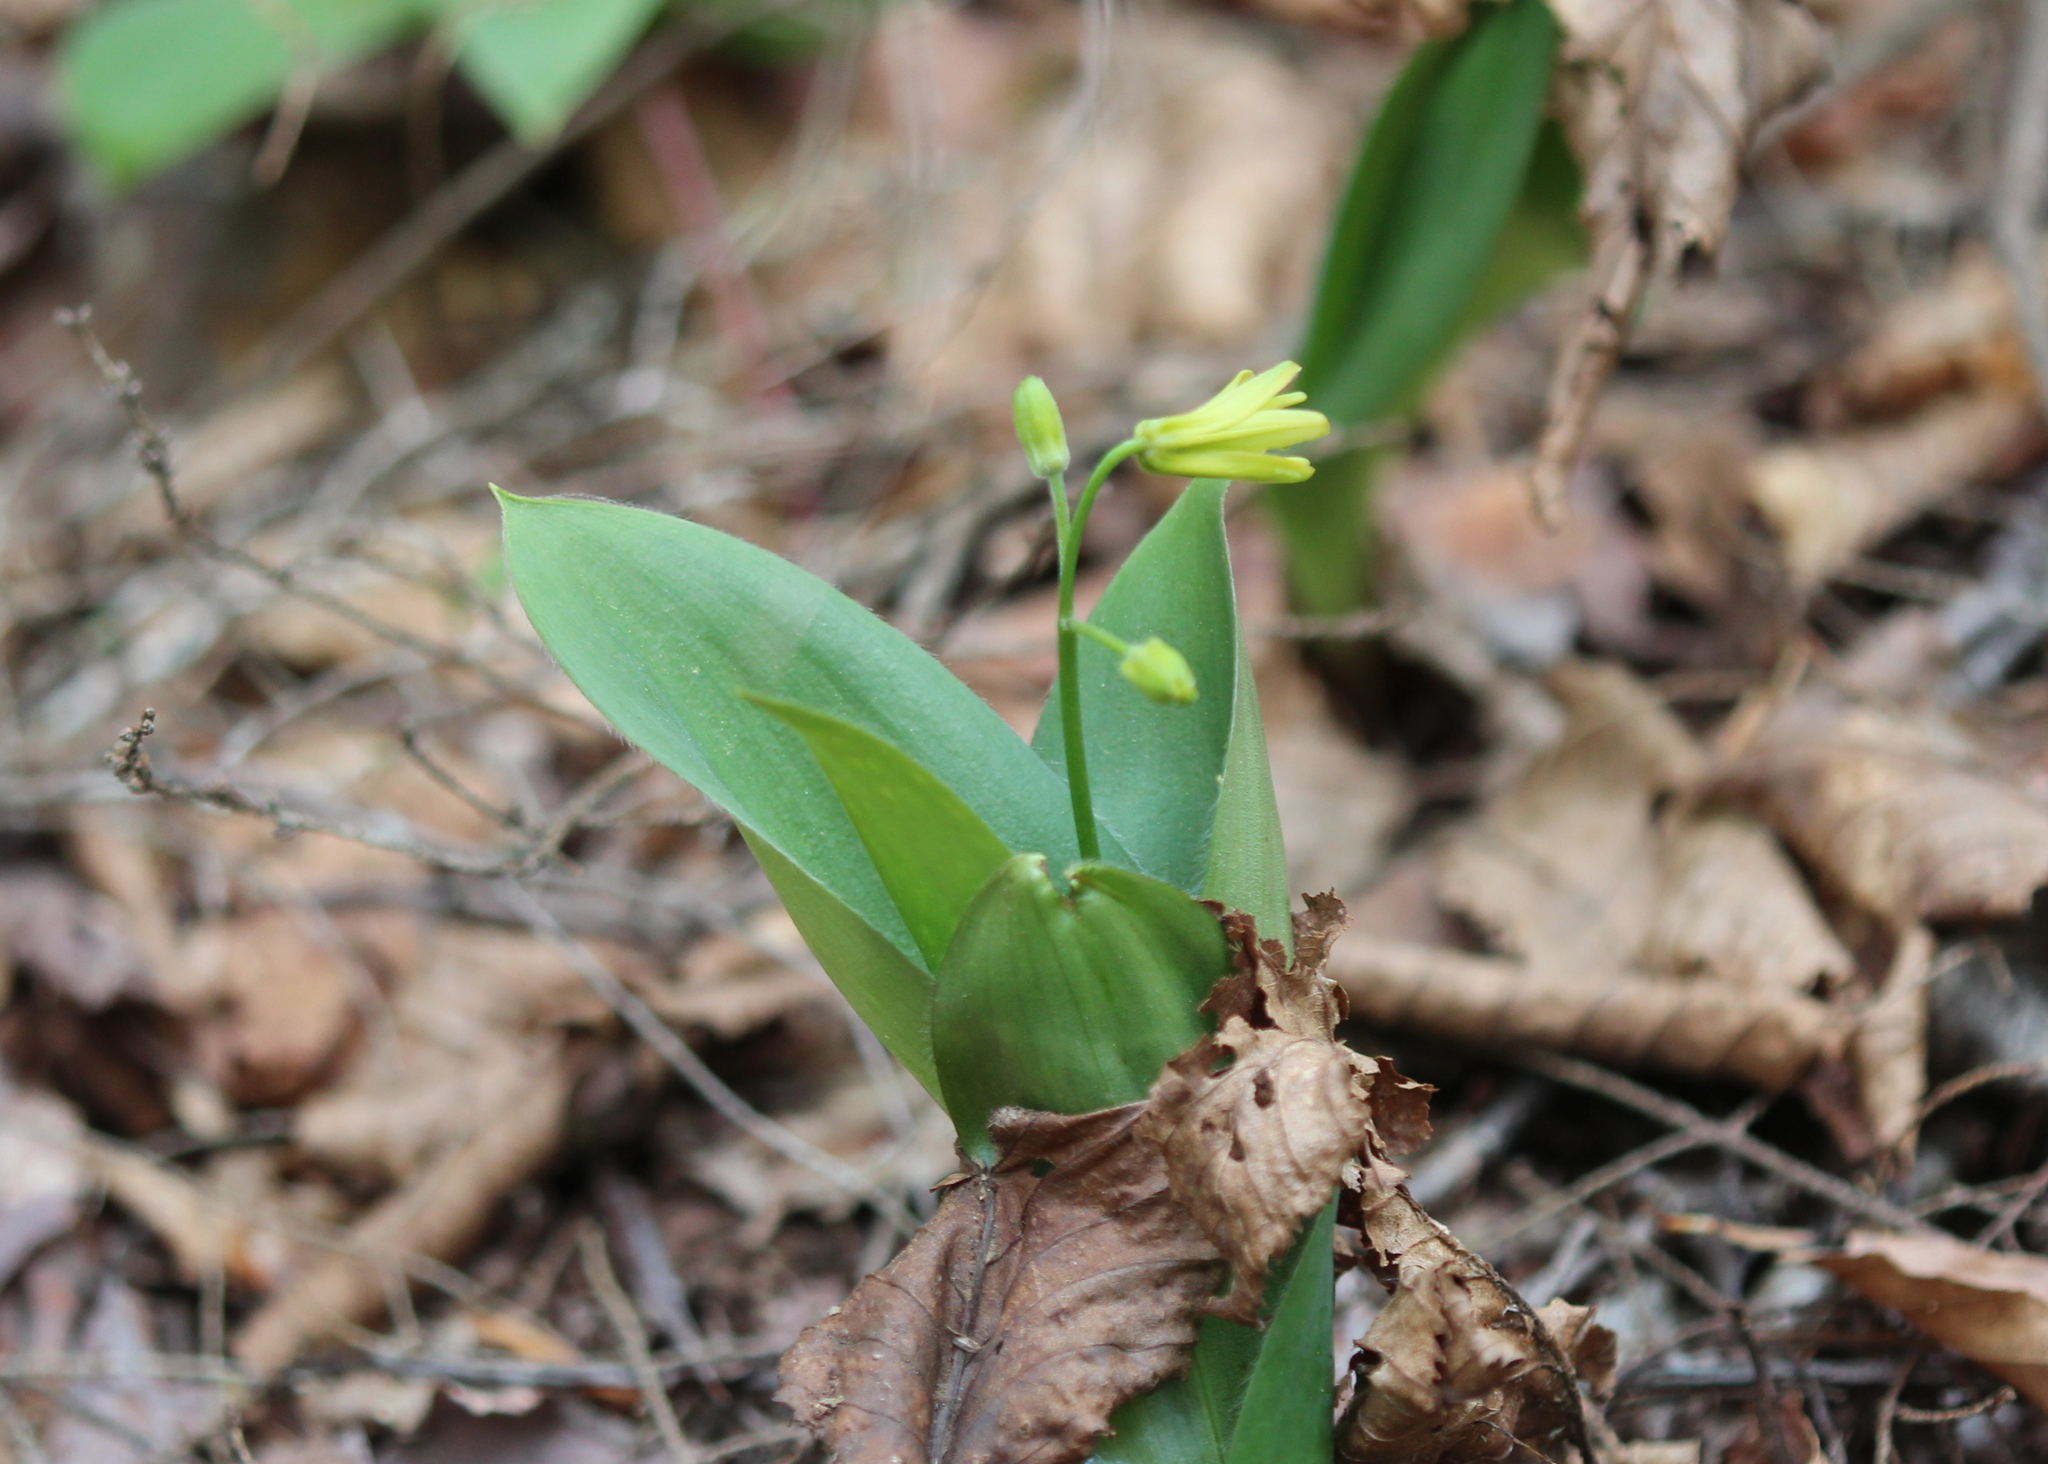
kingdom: Plantae
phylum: Tracheophyta
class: Liliopsida
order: Liliales
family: Liliaceae
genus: Clintonia
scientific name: Clintonia borealis
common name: Yellow clintonia
